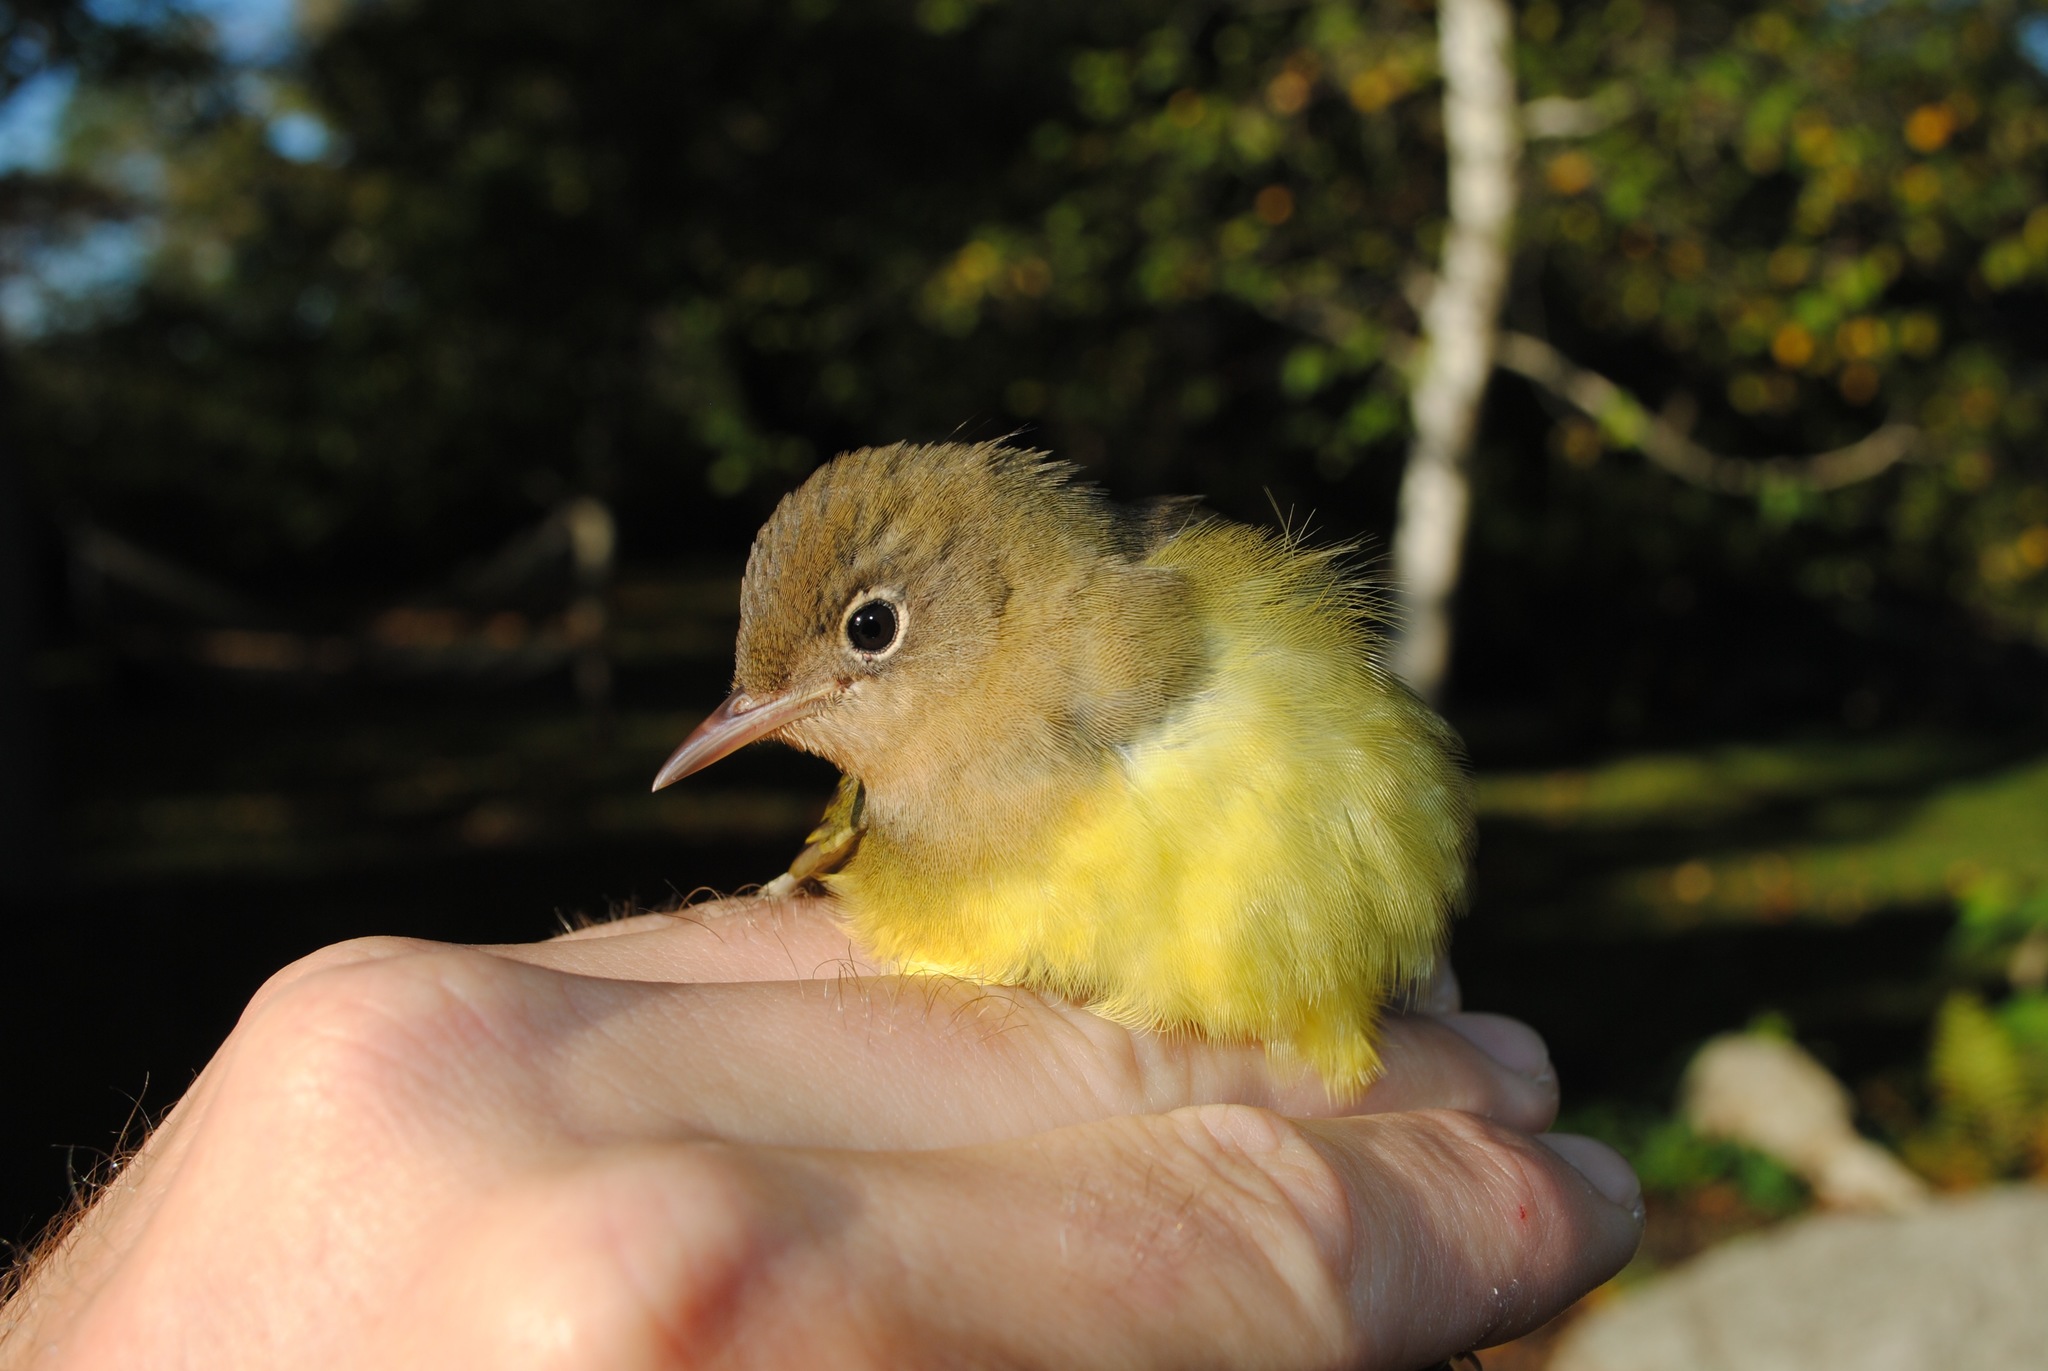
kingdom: Animalia
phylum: Chordata
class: Aves
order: Passeriformes
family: Parulidae
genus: Oporornis
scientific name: Oporornis agilis
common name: Connecticut warbler
